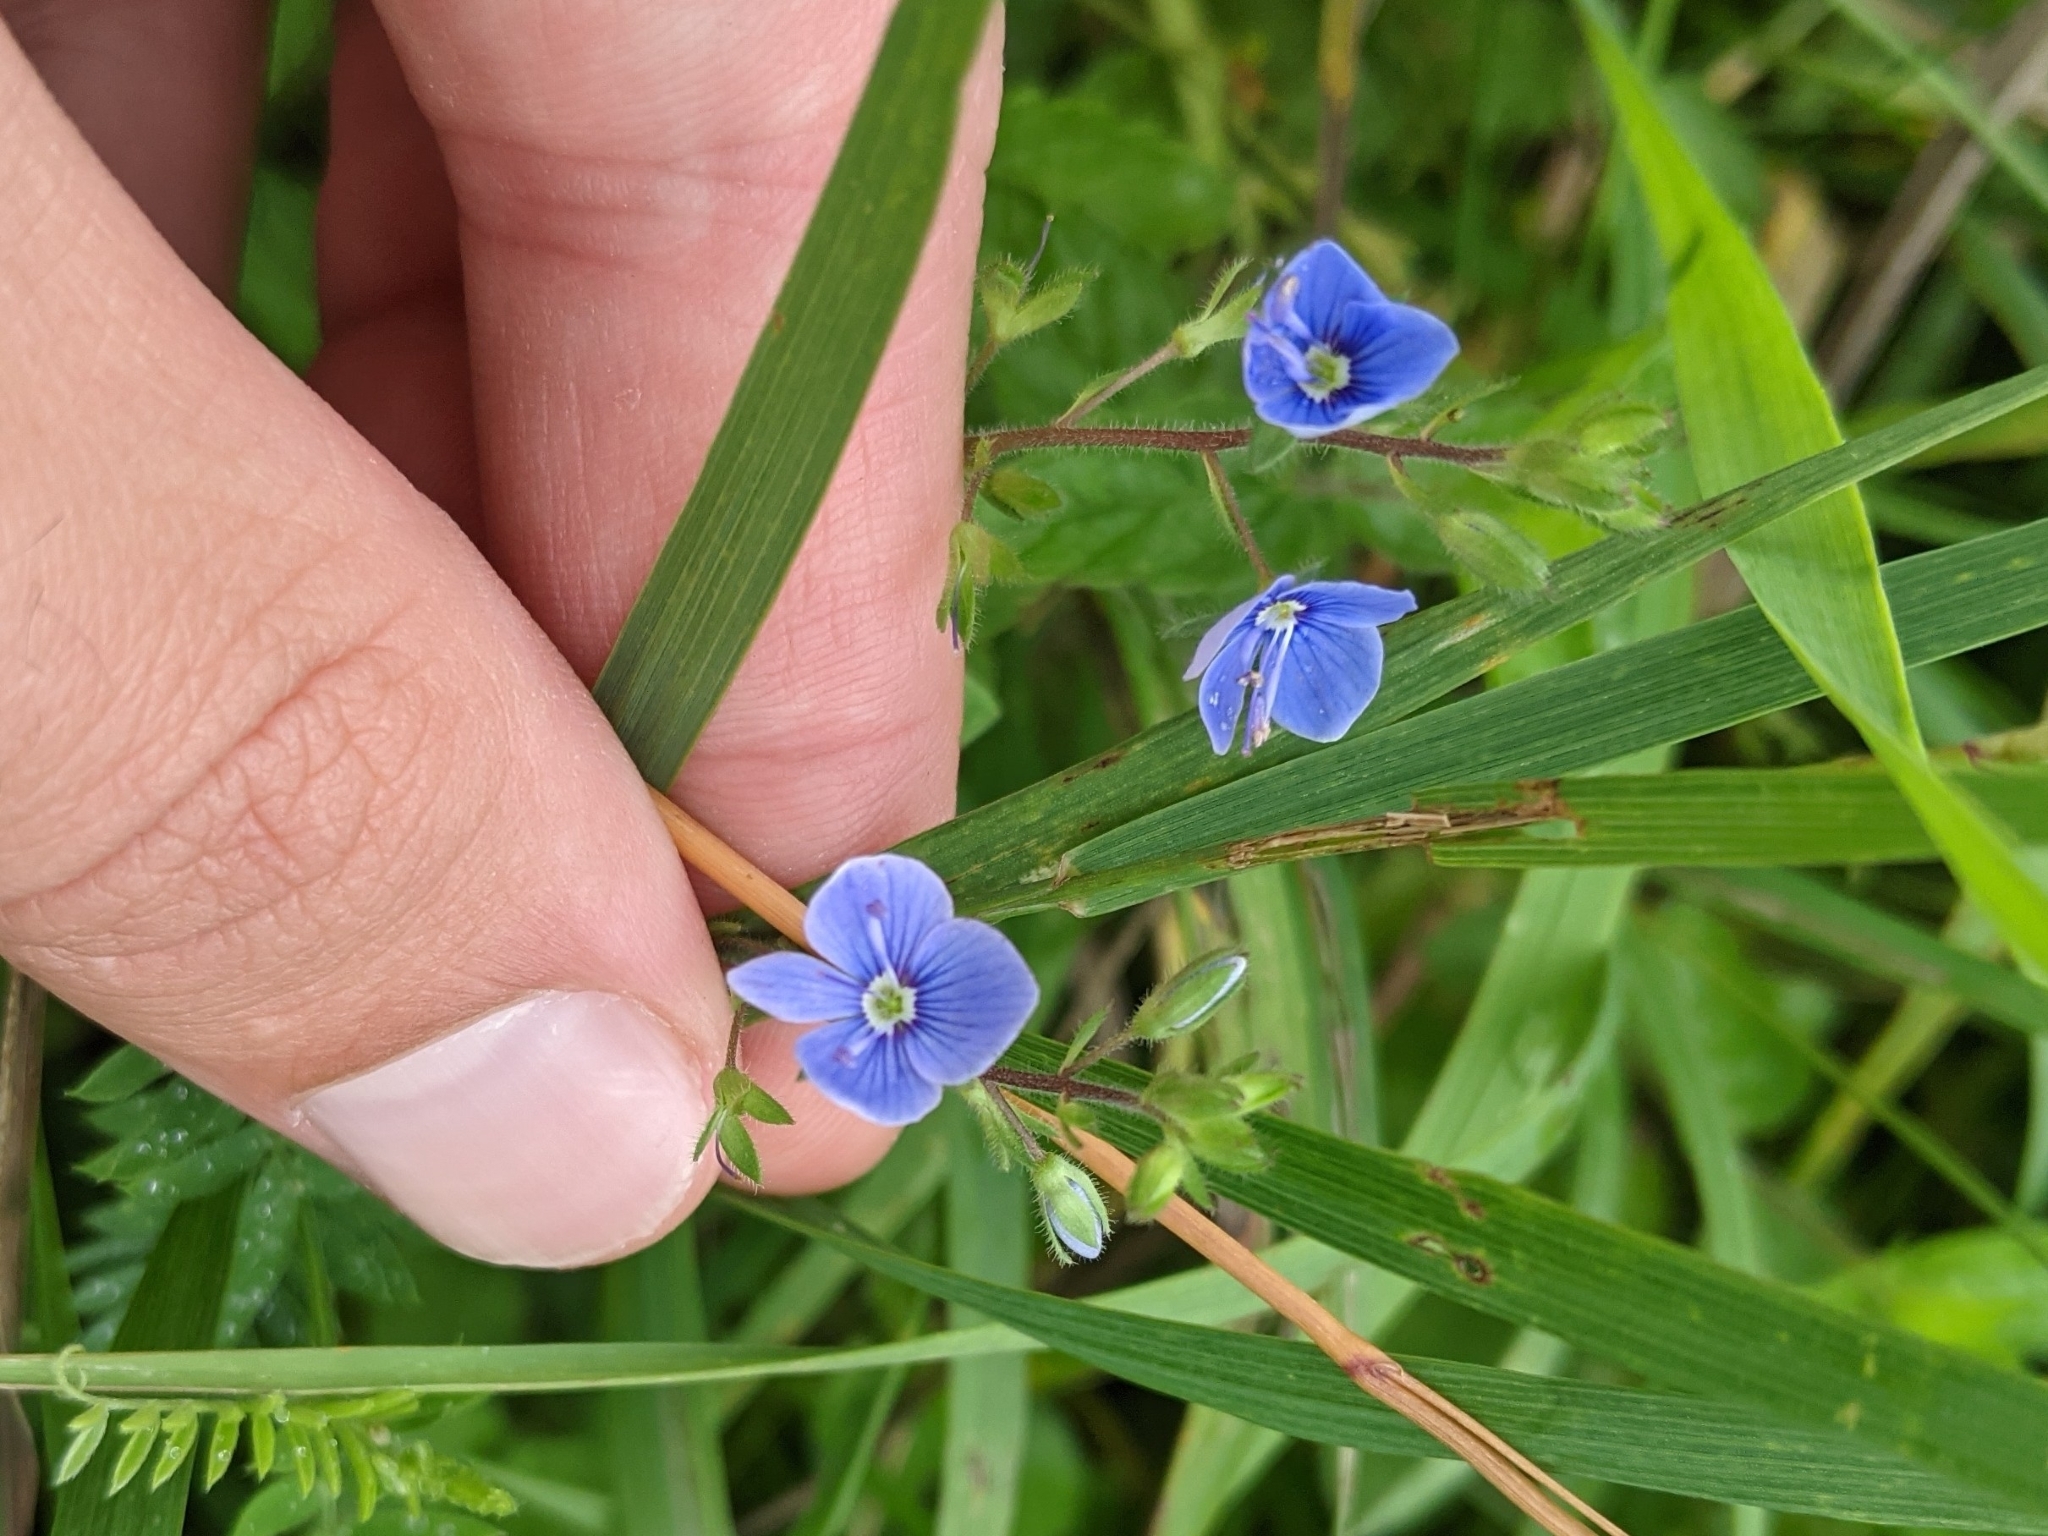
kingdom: Plantae
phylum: Tracheophyta
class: Magnoliopsida
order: Lamiales
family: Plantaginaceae
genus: Veronica
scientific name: Veronica chamaedrys
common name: Germander speedwell
